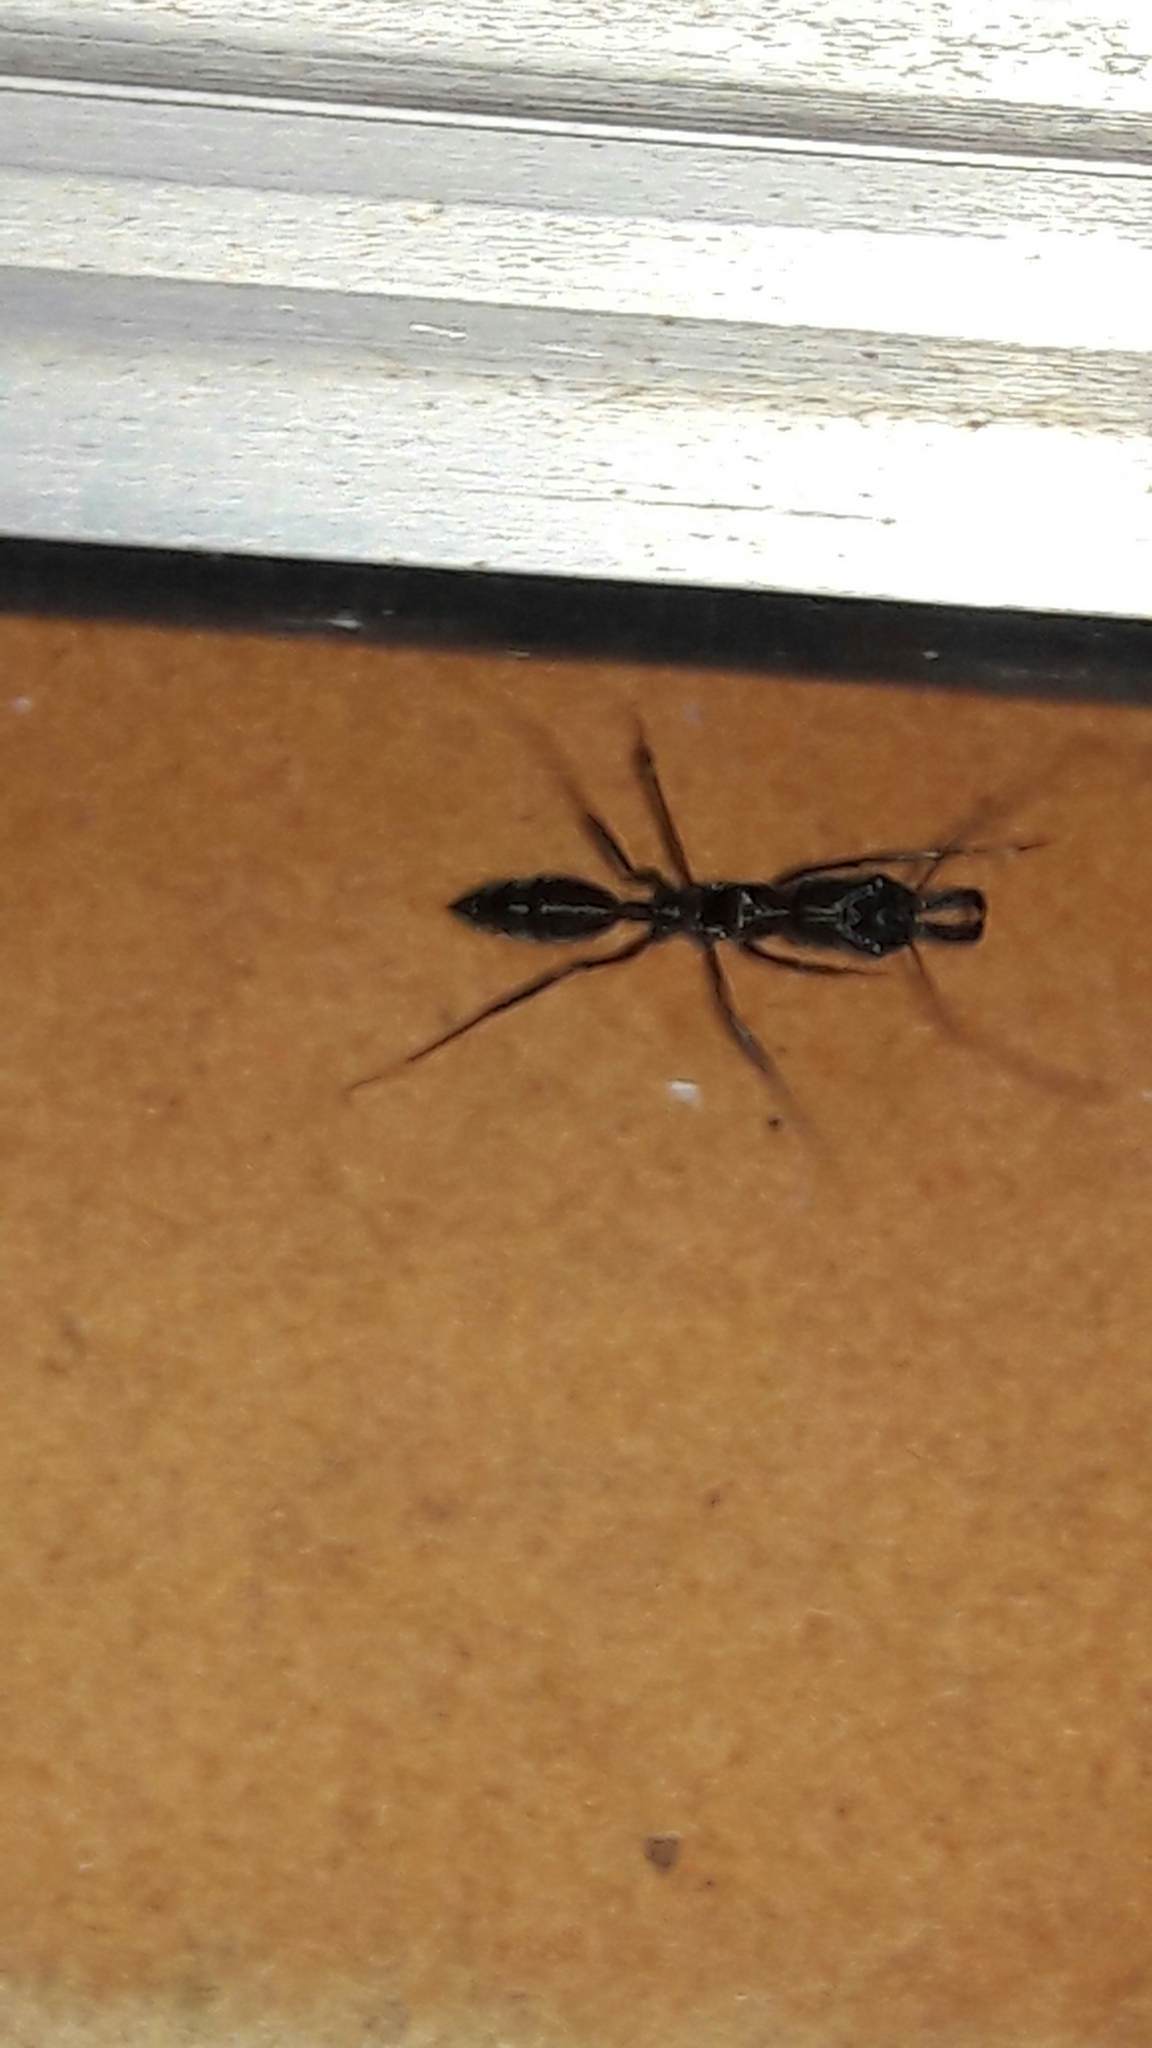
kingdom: Animalia
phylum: Arthropoda
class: Insecta
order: Hymenoptera
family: Formicidae
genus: Odontomachus
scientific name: Odontomachus chelifer
